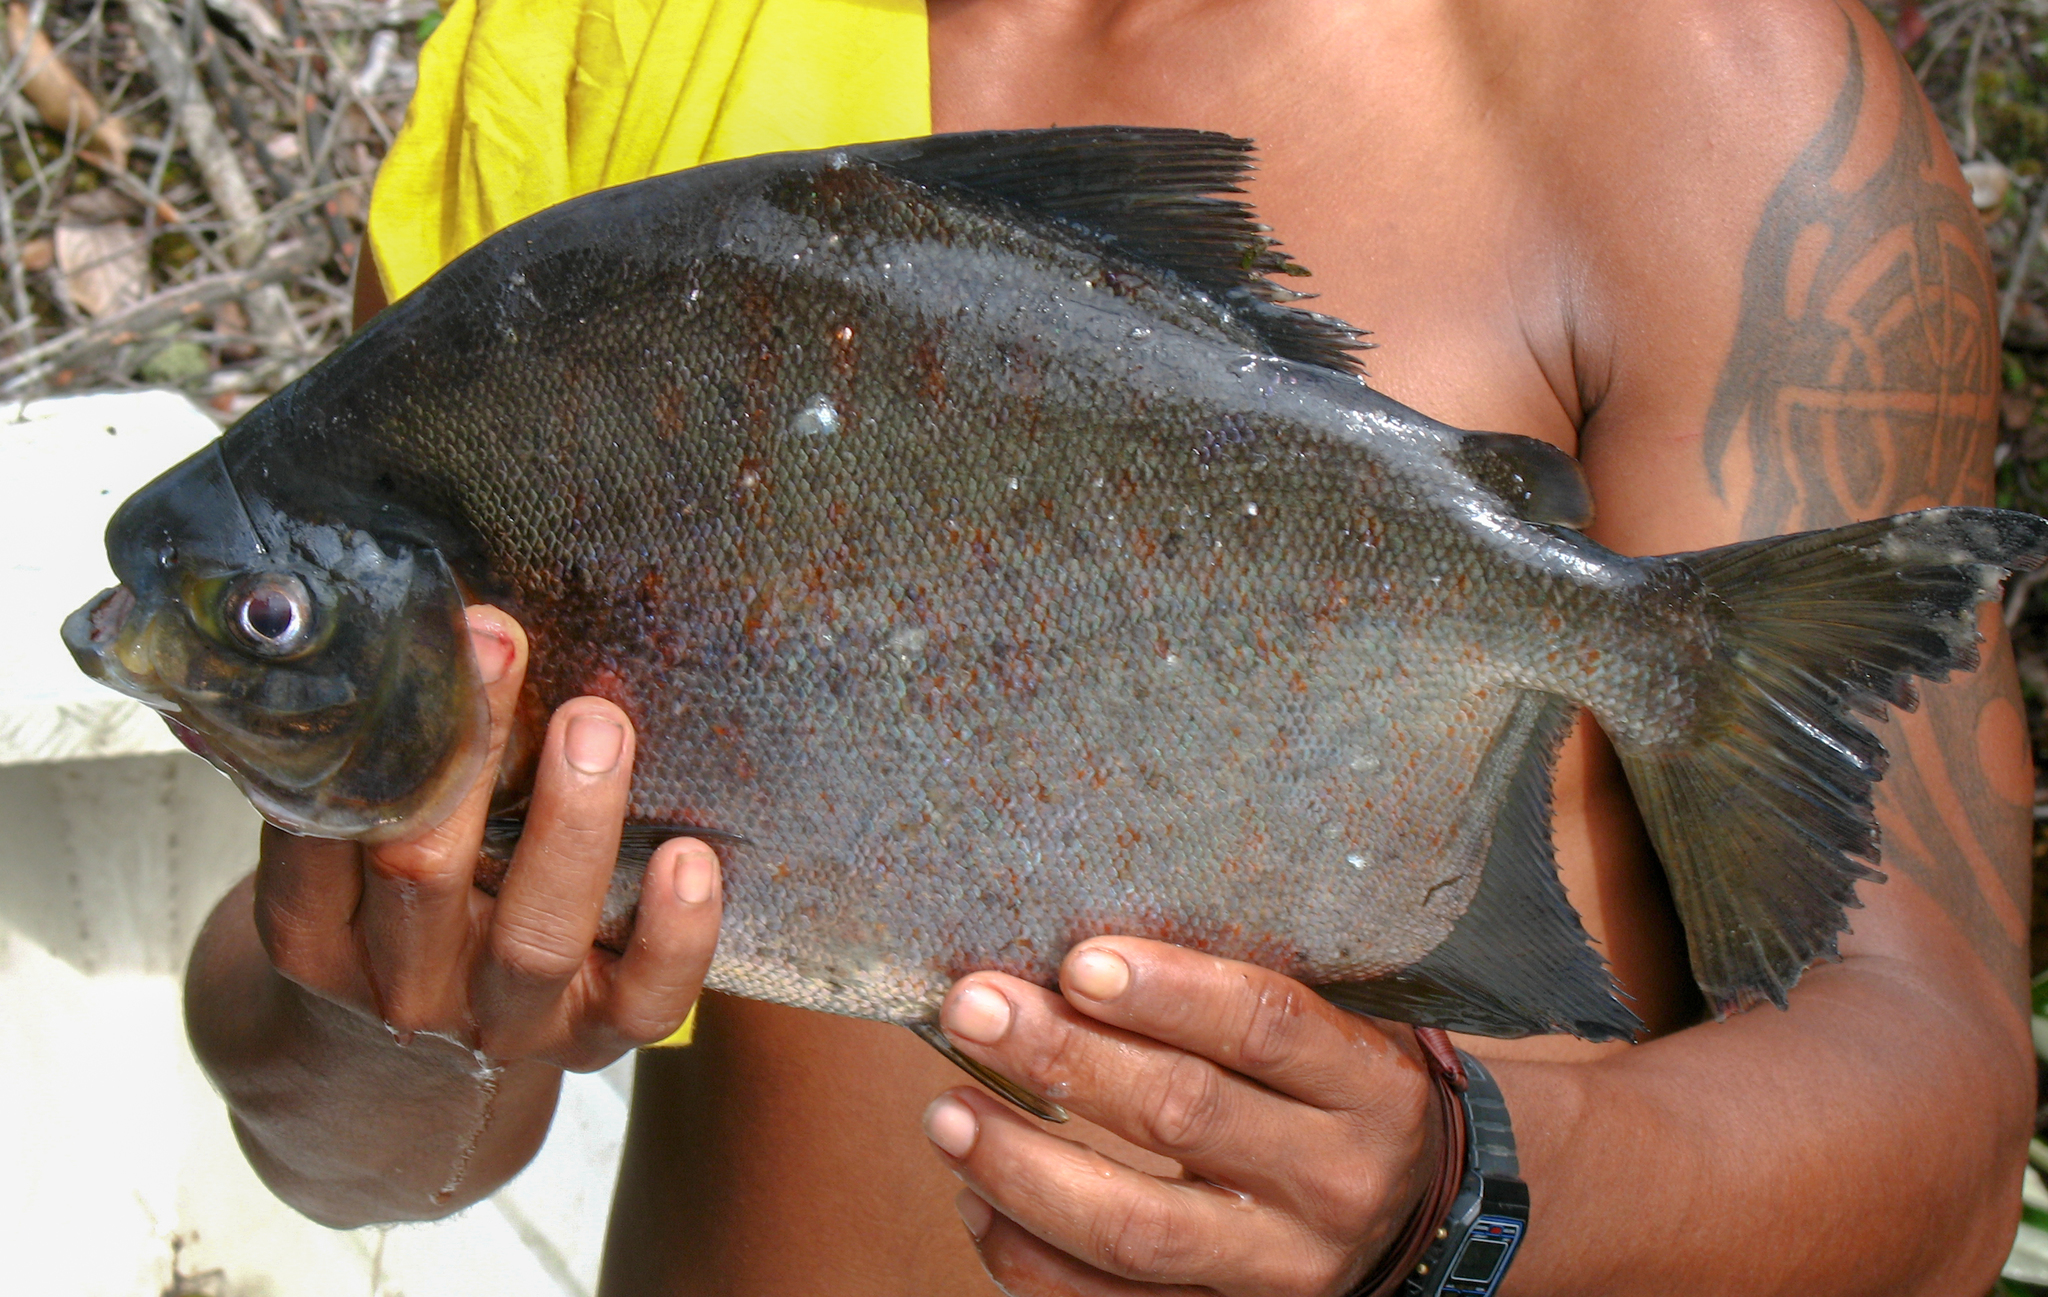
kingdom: Animalia
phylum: Chordata
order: Characiformes
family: Serrasalmidae
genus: Tometes
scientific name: Tometes makue
